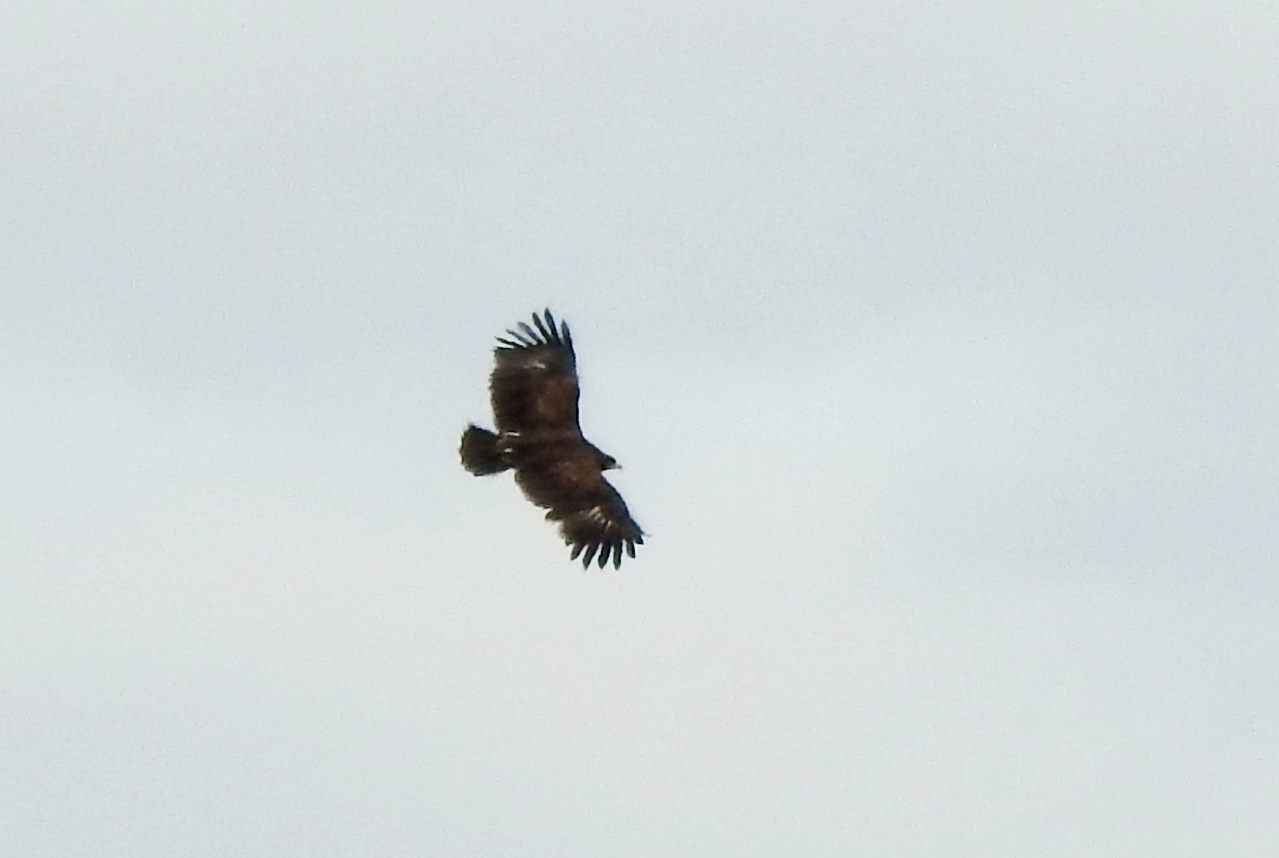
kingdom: Animalia
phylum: Chordata
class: Aves
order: Accipitriformes
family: Accipitridae
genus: Aquila
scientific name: Aquila clanga
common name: Greater spotted eagle
